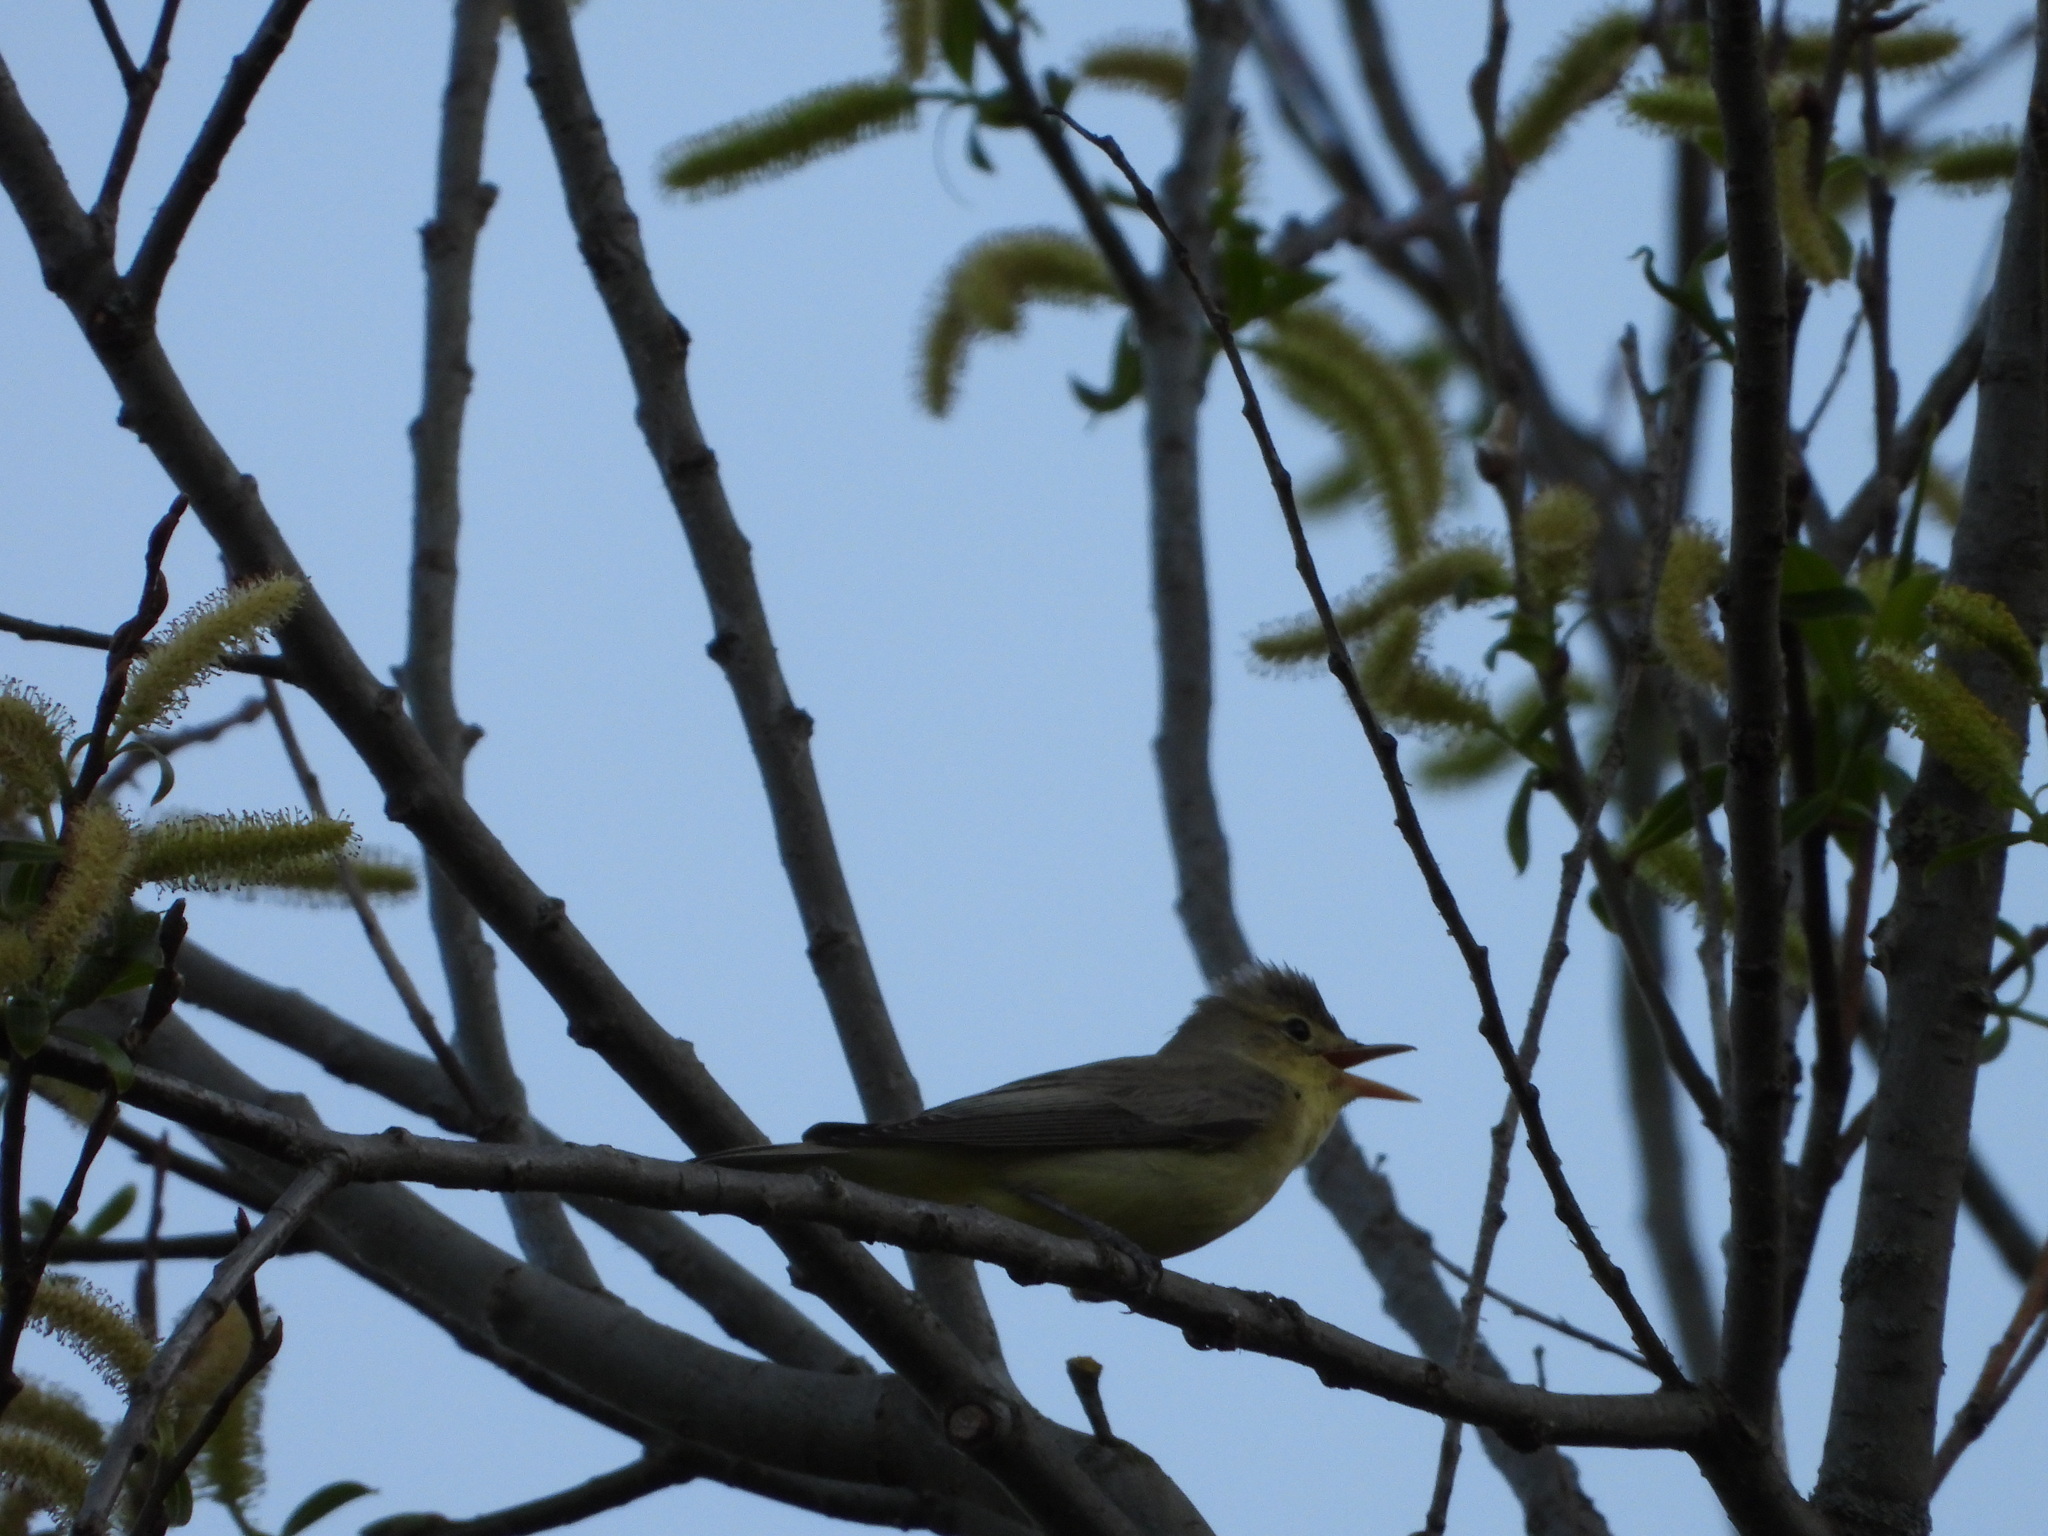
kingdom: Animalia
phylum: Chordata
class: Aves
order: Passeriformes
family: Acrocephalidae
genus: Hippolais
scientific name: Hippolais icterina
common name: Icterine warbler
